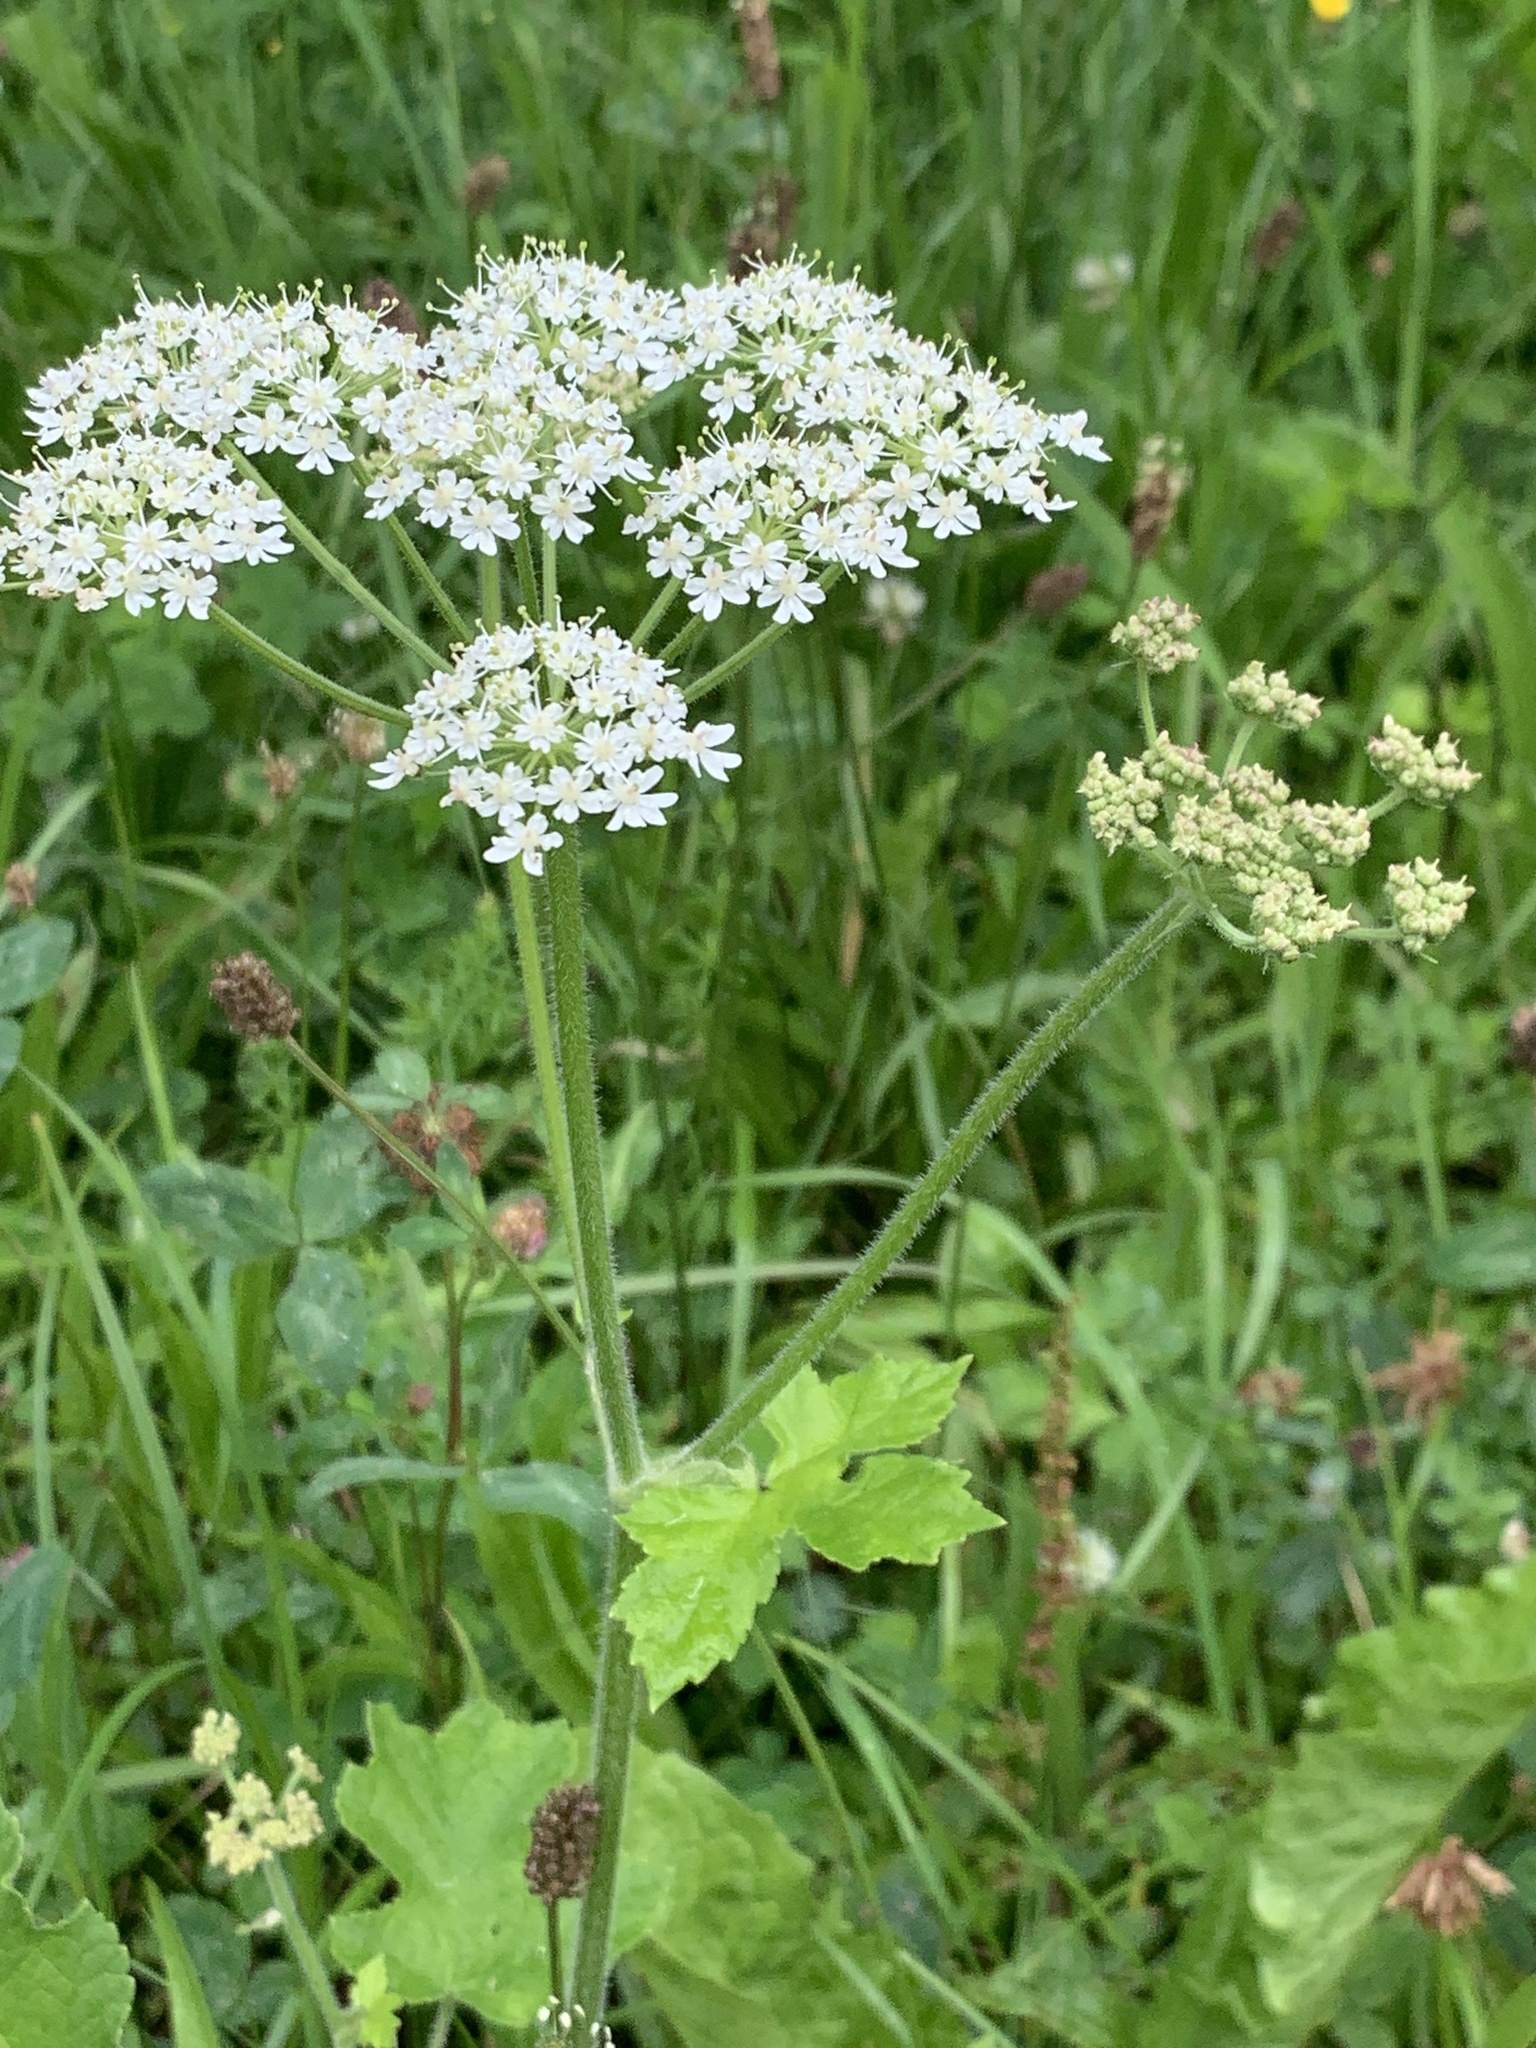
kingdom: Plantae
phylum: Tracheophyta
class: Magnoliopsida
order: Apiales
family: Apiaceae
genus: Heracleum
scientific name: Heracleum sphondylium
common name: Hogweed
